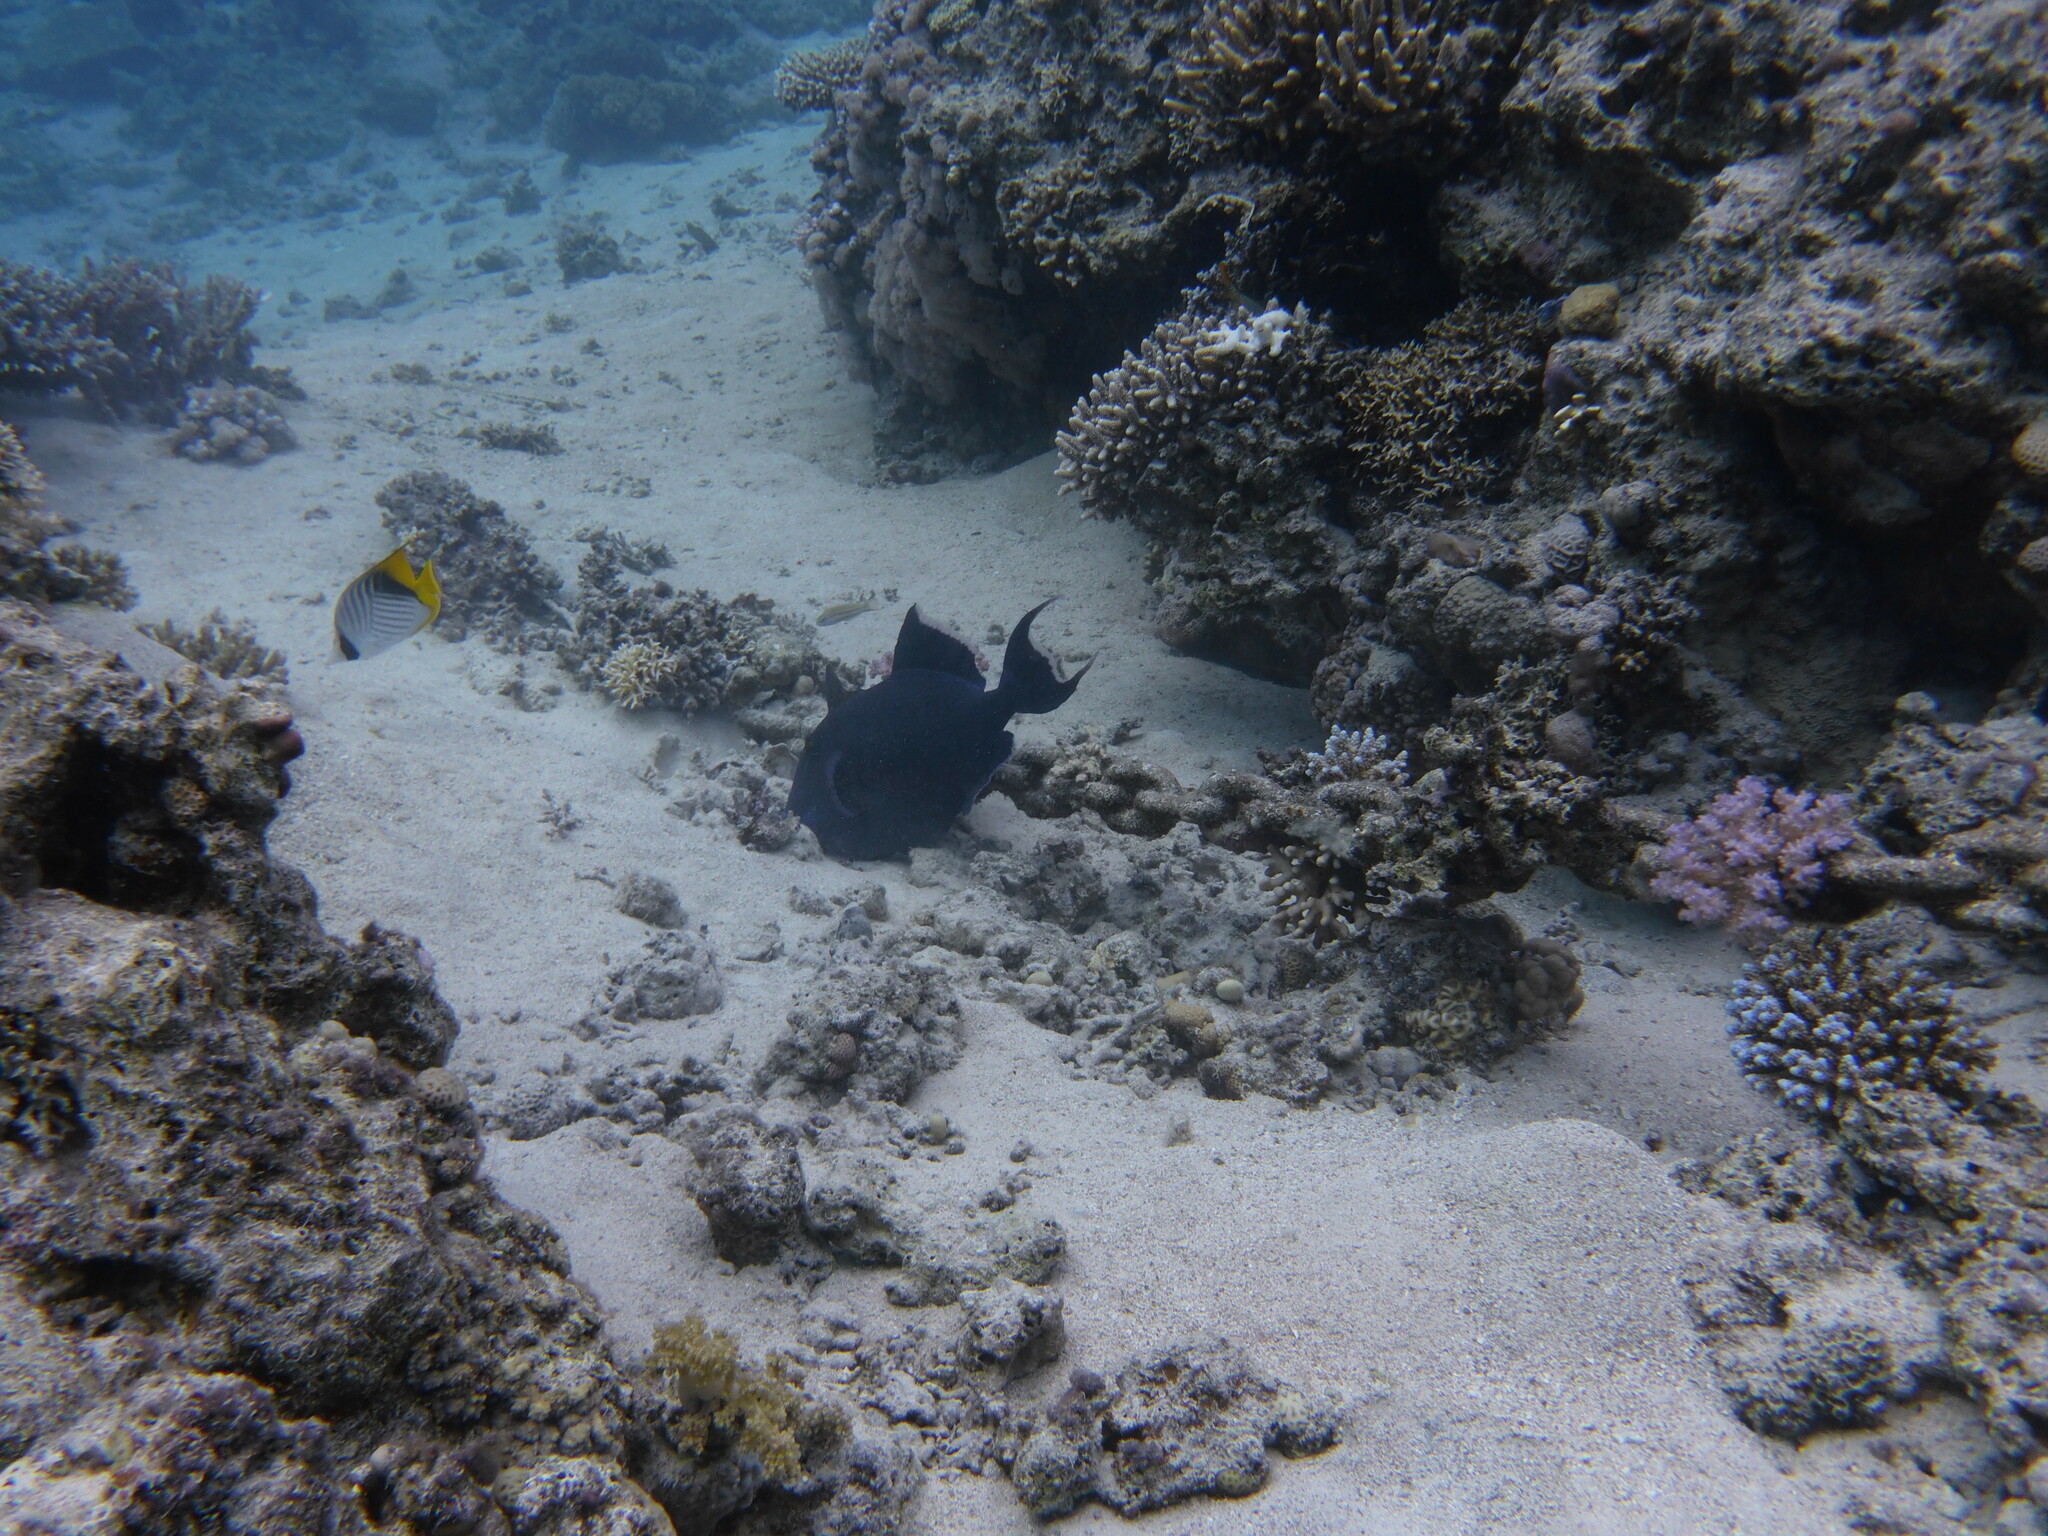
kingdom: Animalia
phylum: Chordata
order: Tetraodontiformes
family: Balistidae
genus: Pseudobalistes
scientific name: Pseudobalistes fuscus
